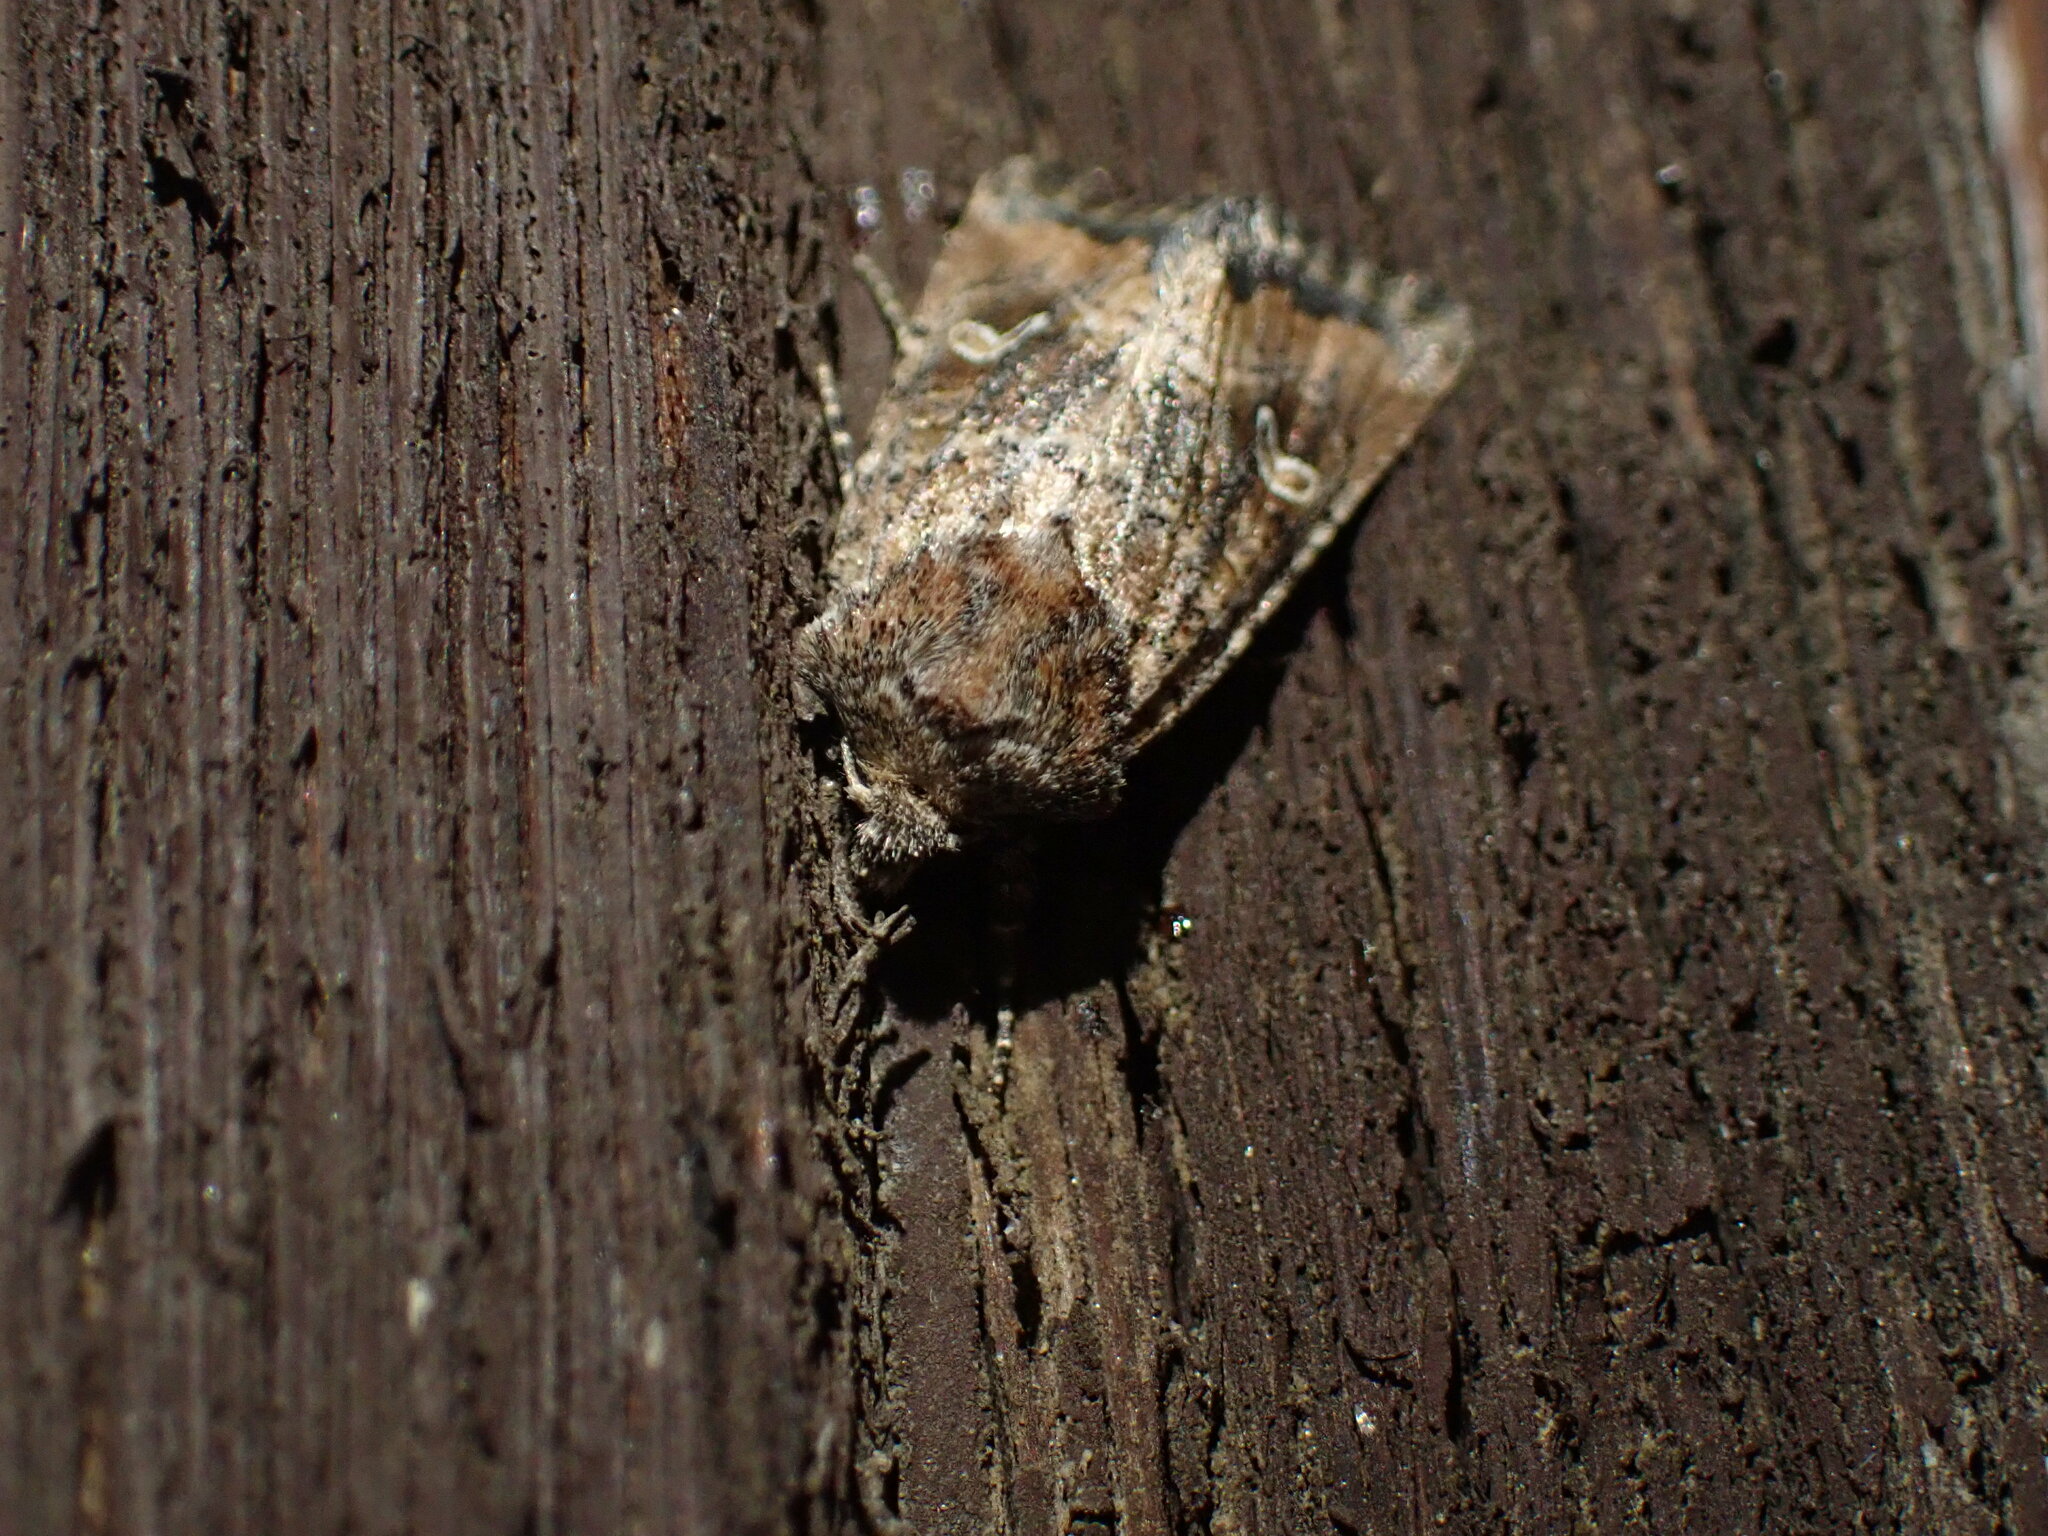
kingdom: Animalia
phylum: Arthropoda
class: Insecta
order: Lepidoptera
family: Noctuidae
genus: Lacinipolia
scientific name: Lacinipolia stricta
